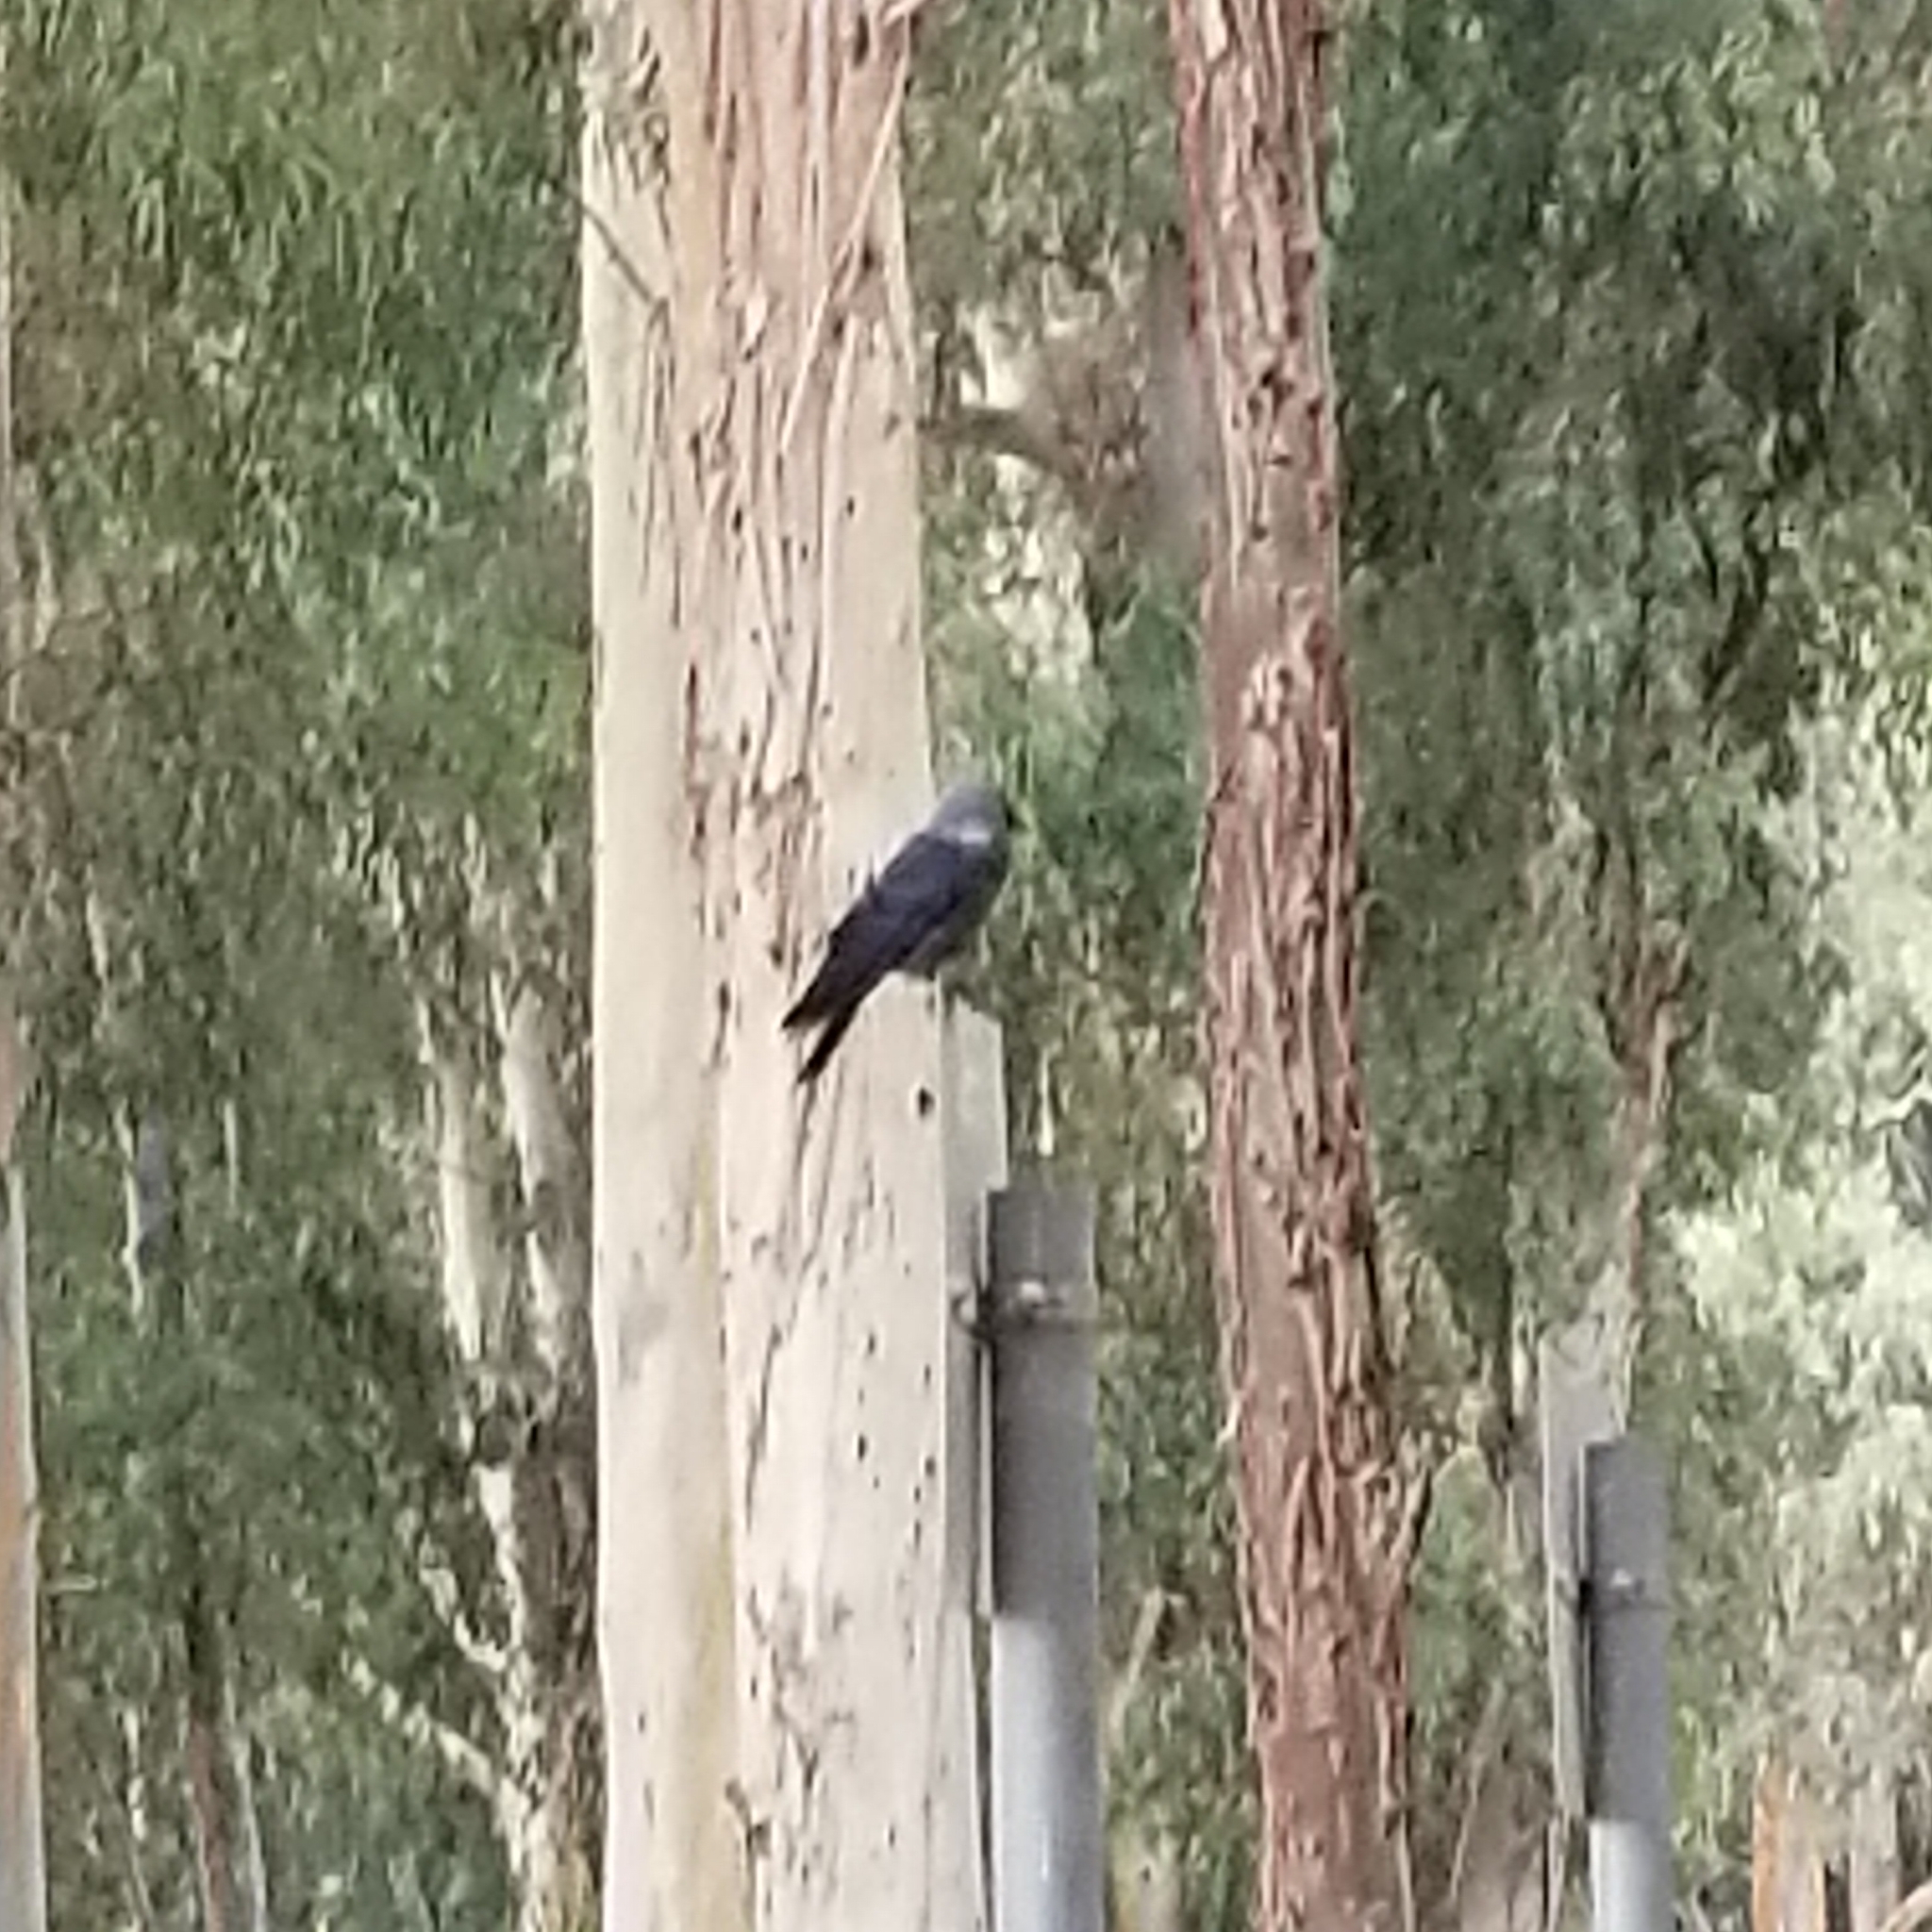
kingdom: Animalia
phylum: Chordata
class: Aves
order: Passeriformes
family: Corvidae
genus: Coloeus
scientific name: Coloeus monedula
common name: Western jackdaw
